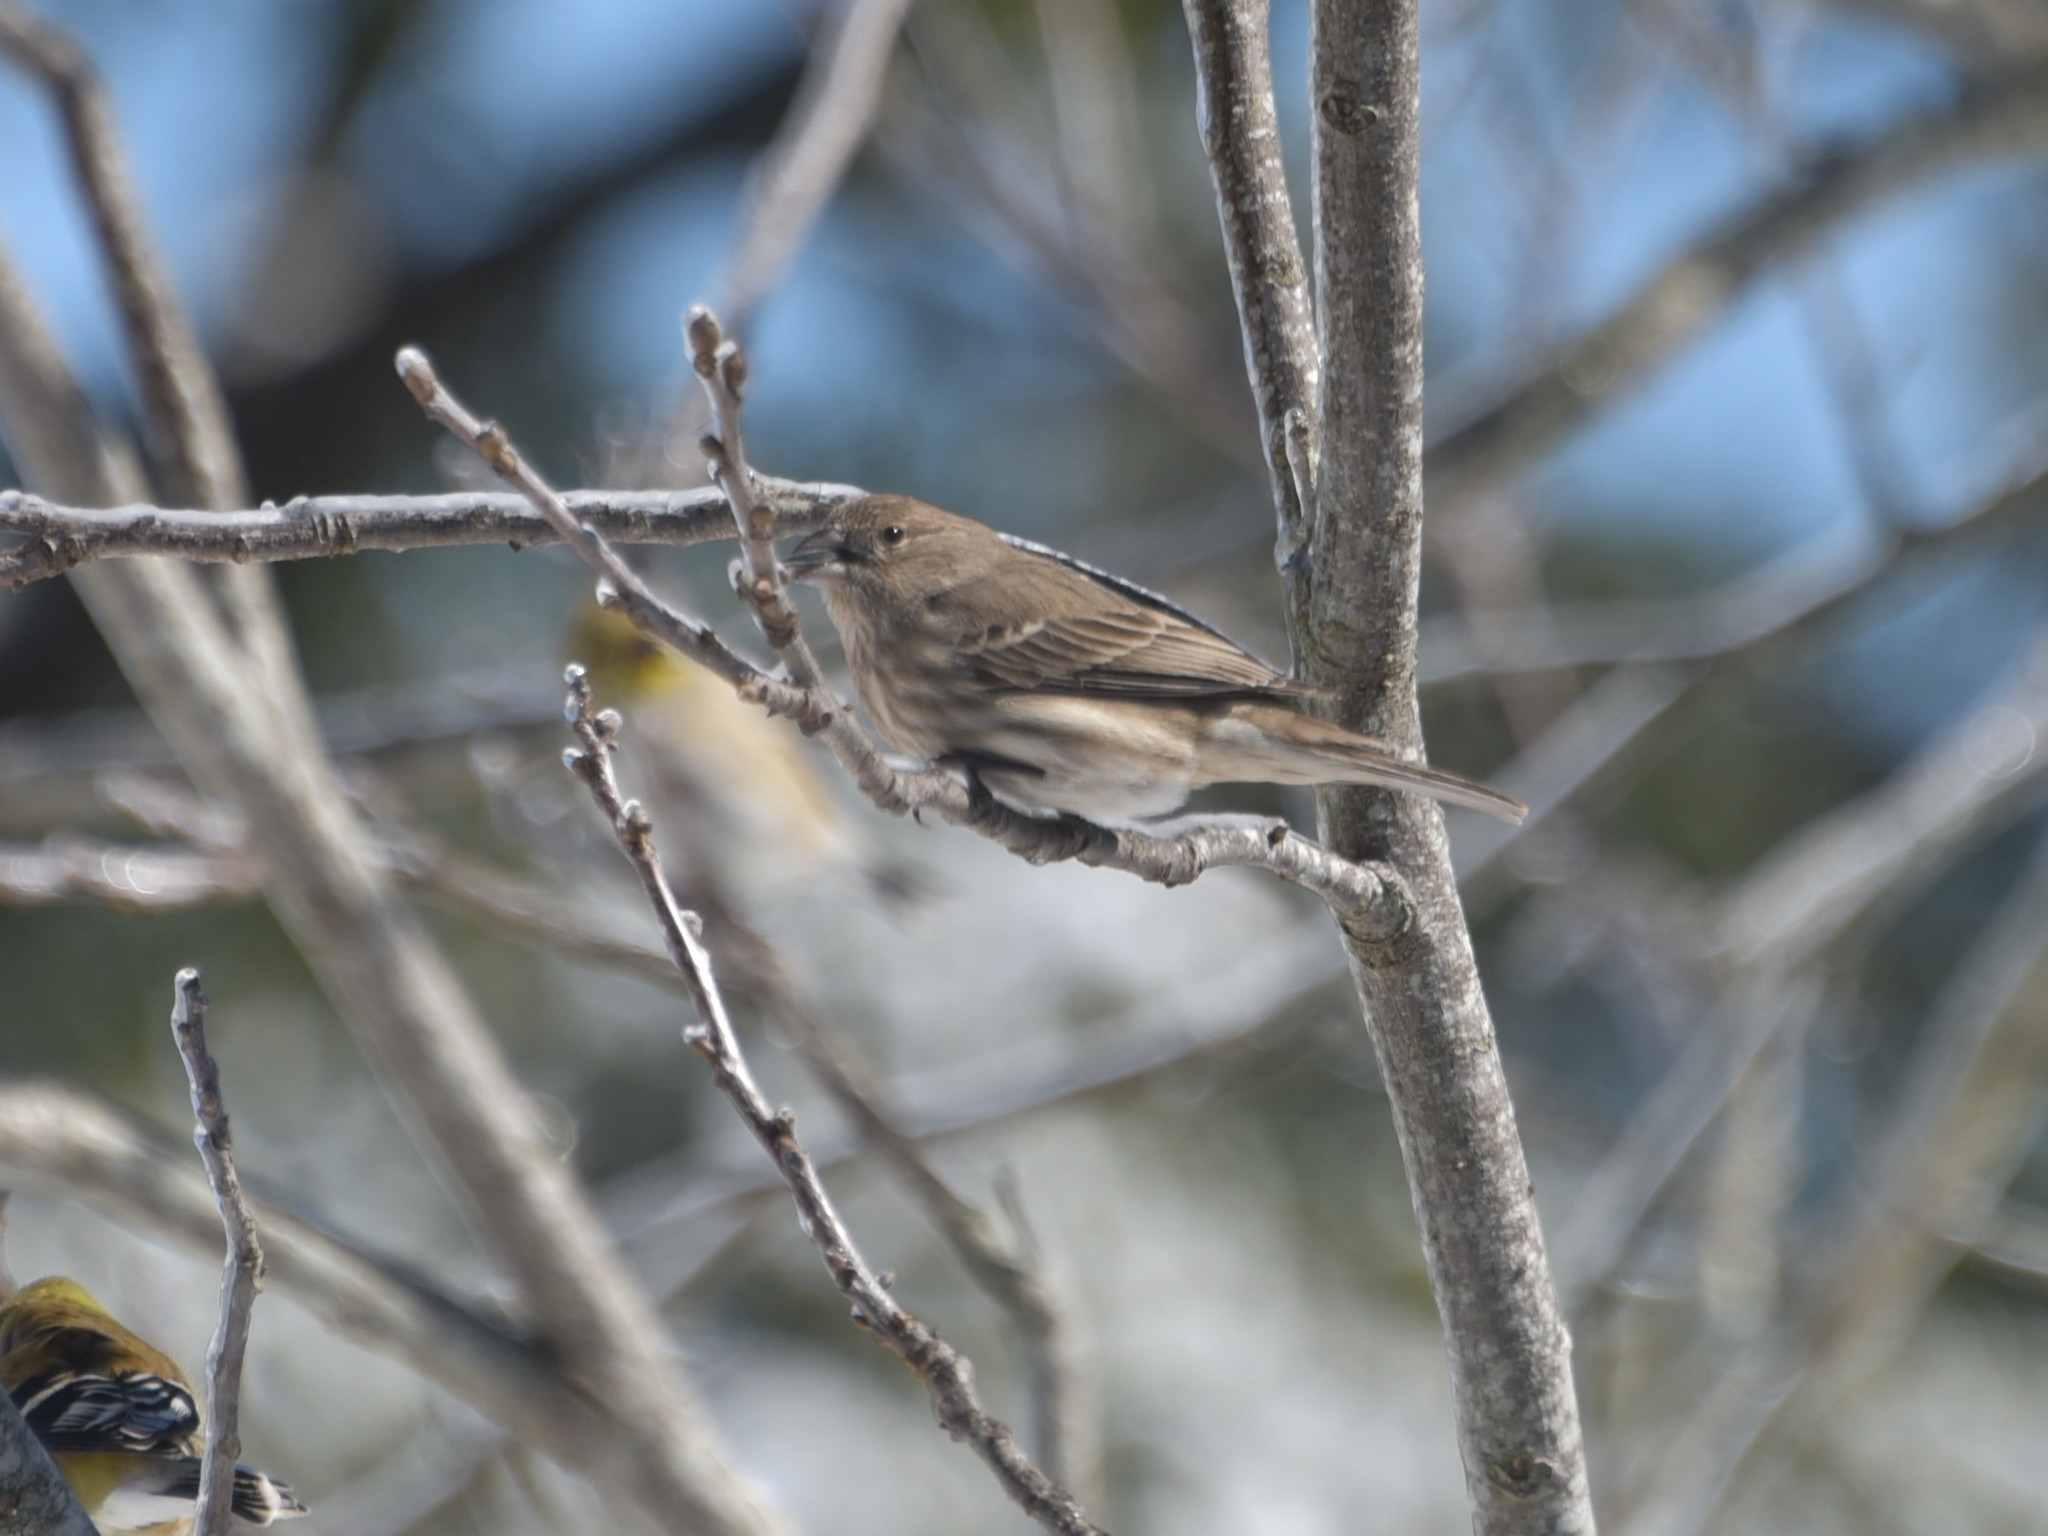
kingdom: Animalia
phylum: Chordata
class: Aves
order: Passeriformes
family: Fringillidae
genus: Haemorhous
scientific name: Haemorhous mexicanus
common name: House finch
